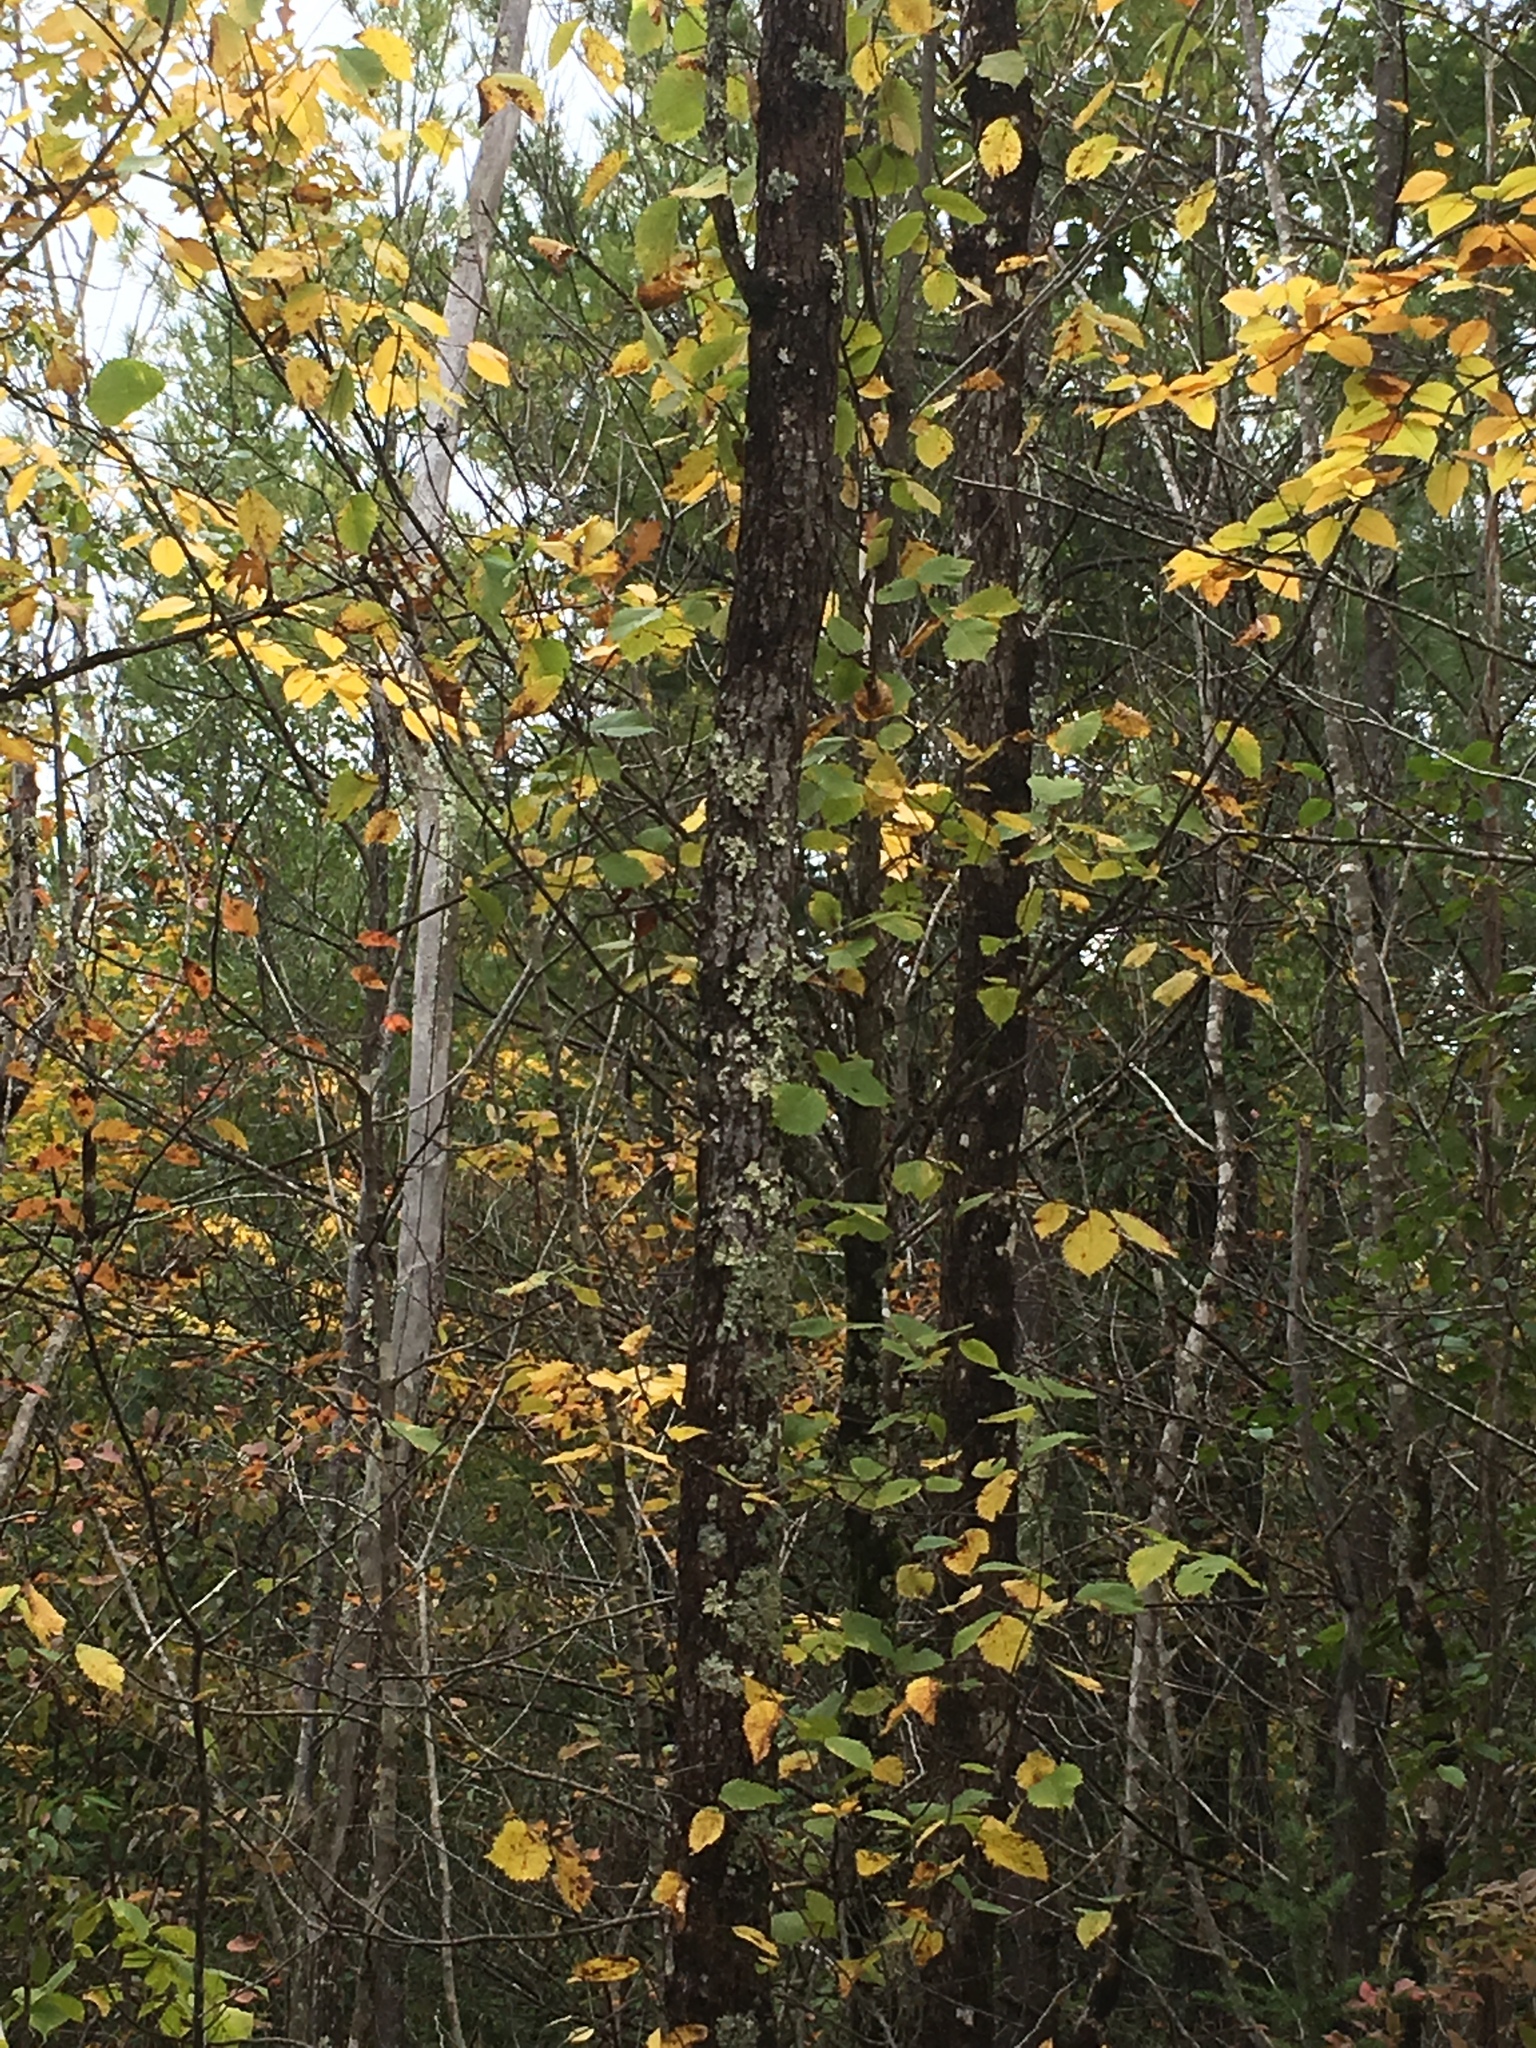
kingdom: Plantae
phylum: Tracheophyta
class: Magnoliopsida
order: Rosales
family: Ulmaceae
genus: Ulmus
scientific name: Ulmus americana
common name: American elm
